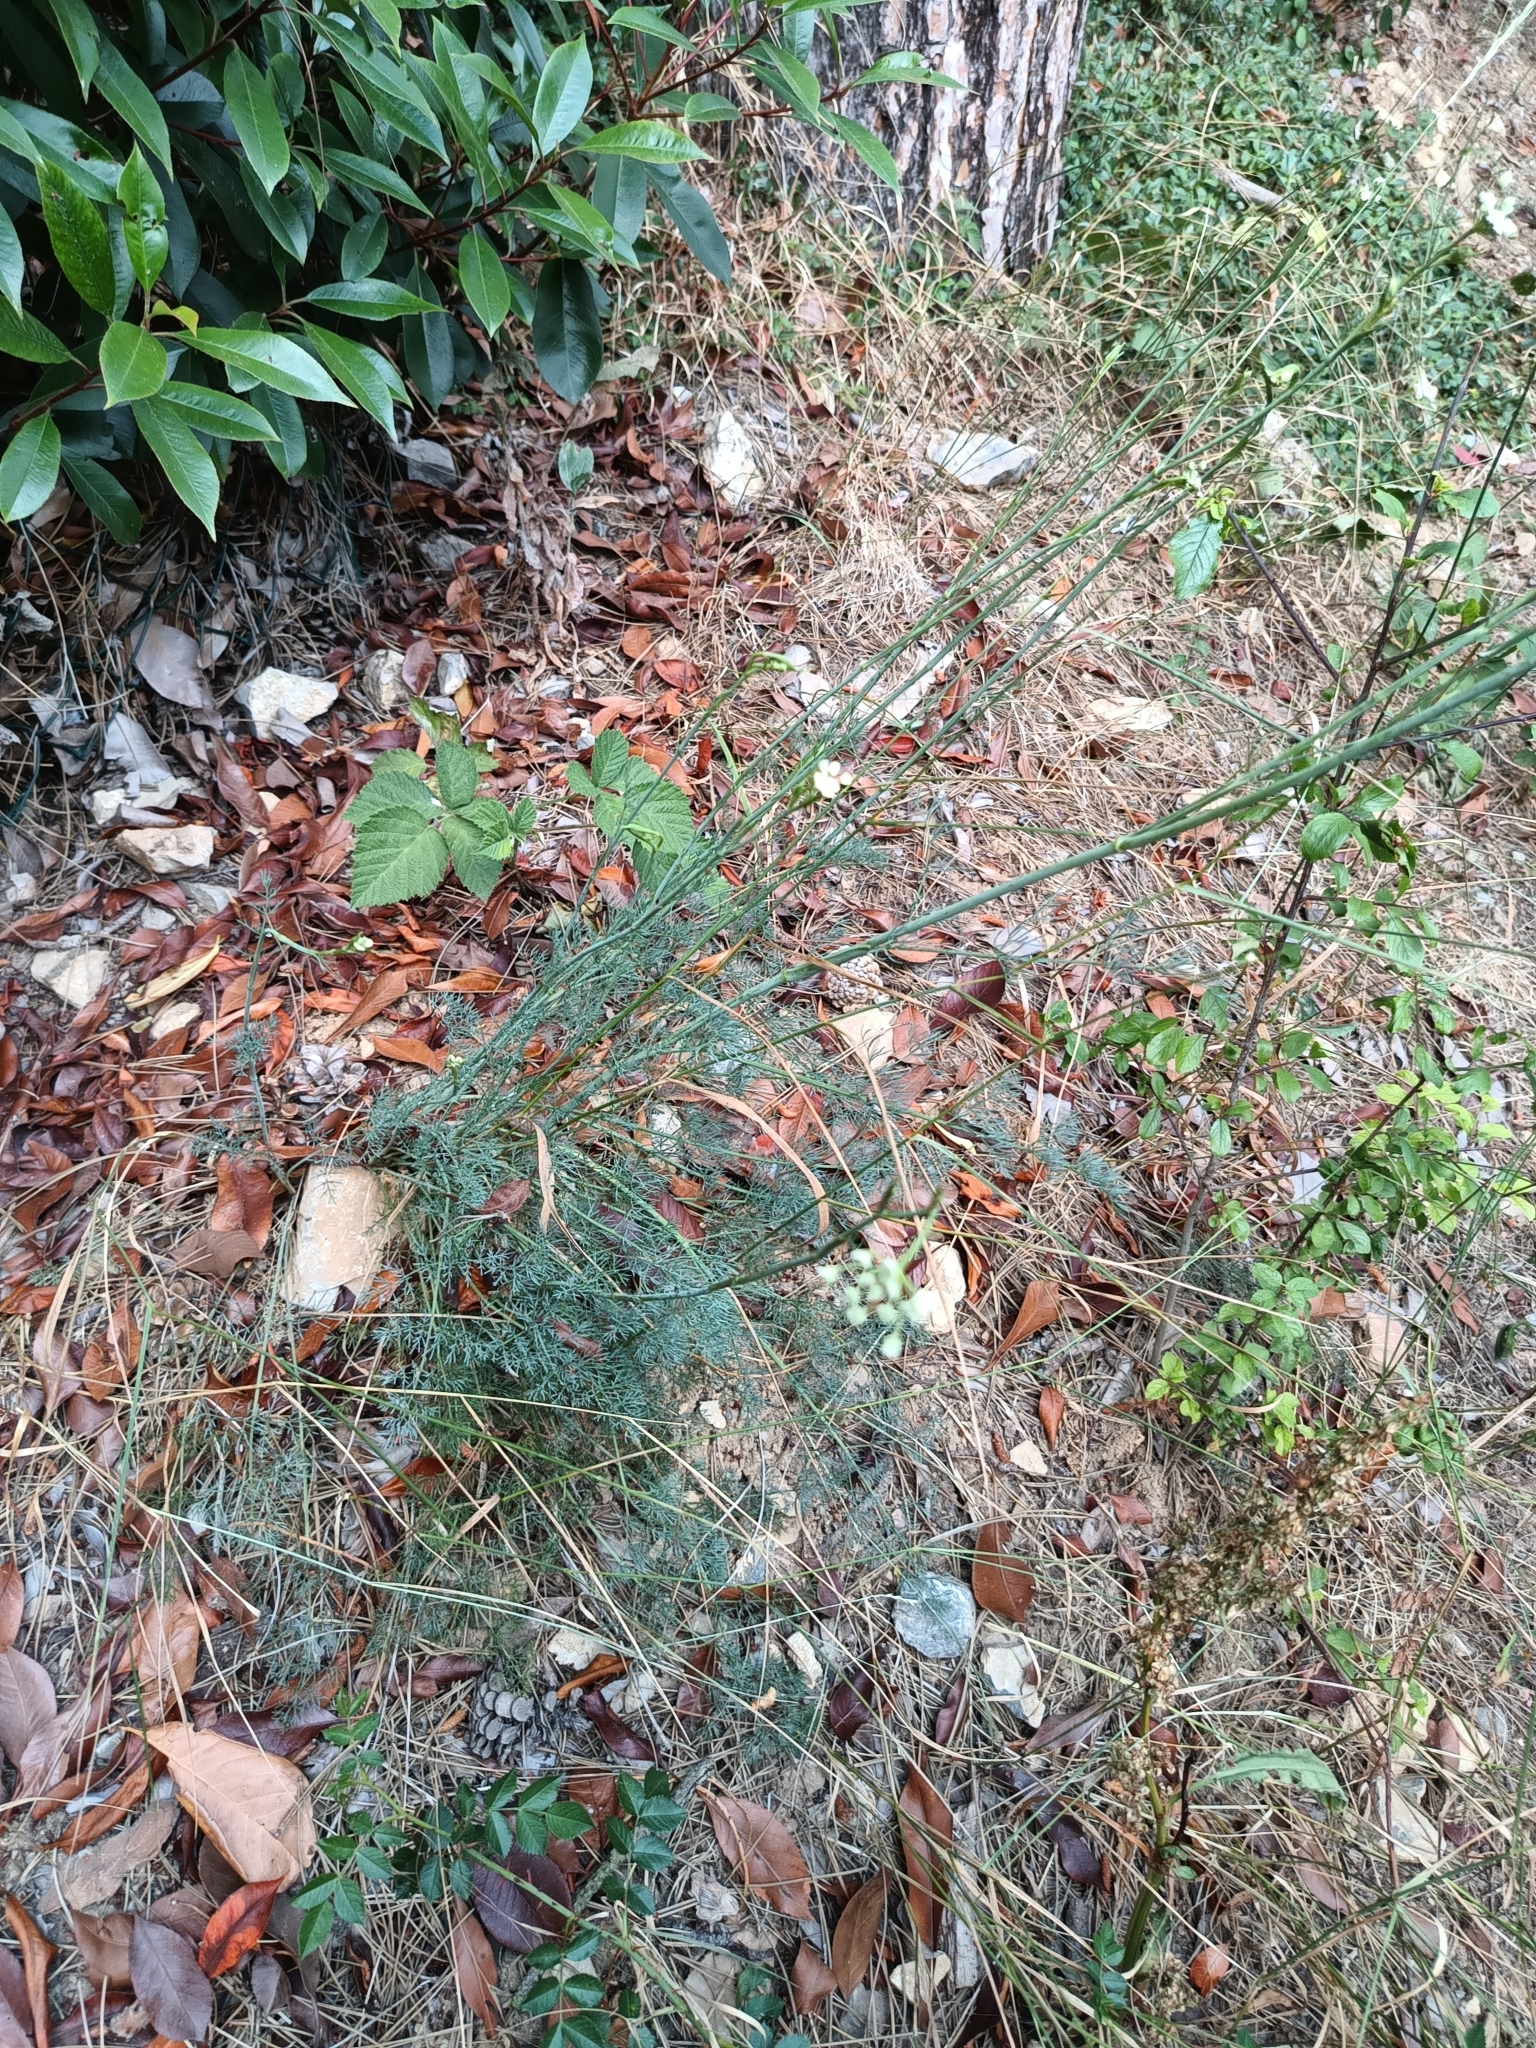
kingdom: Plantae
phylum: Tracheophyta
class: Magnoliopsida
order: Apiales
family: Apiaceae
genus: Hippomarathrum
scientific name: Hippomarathrum
